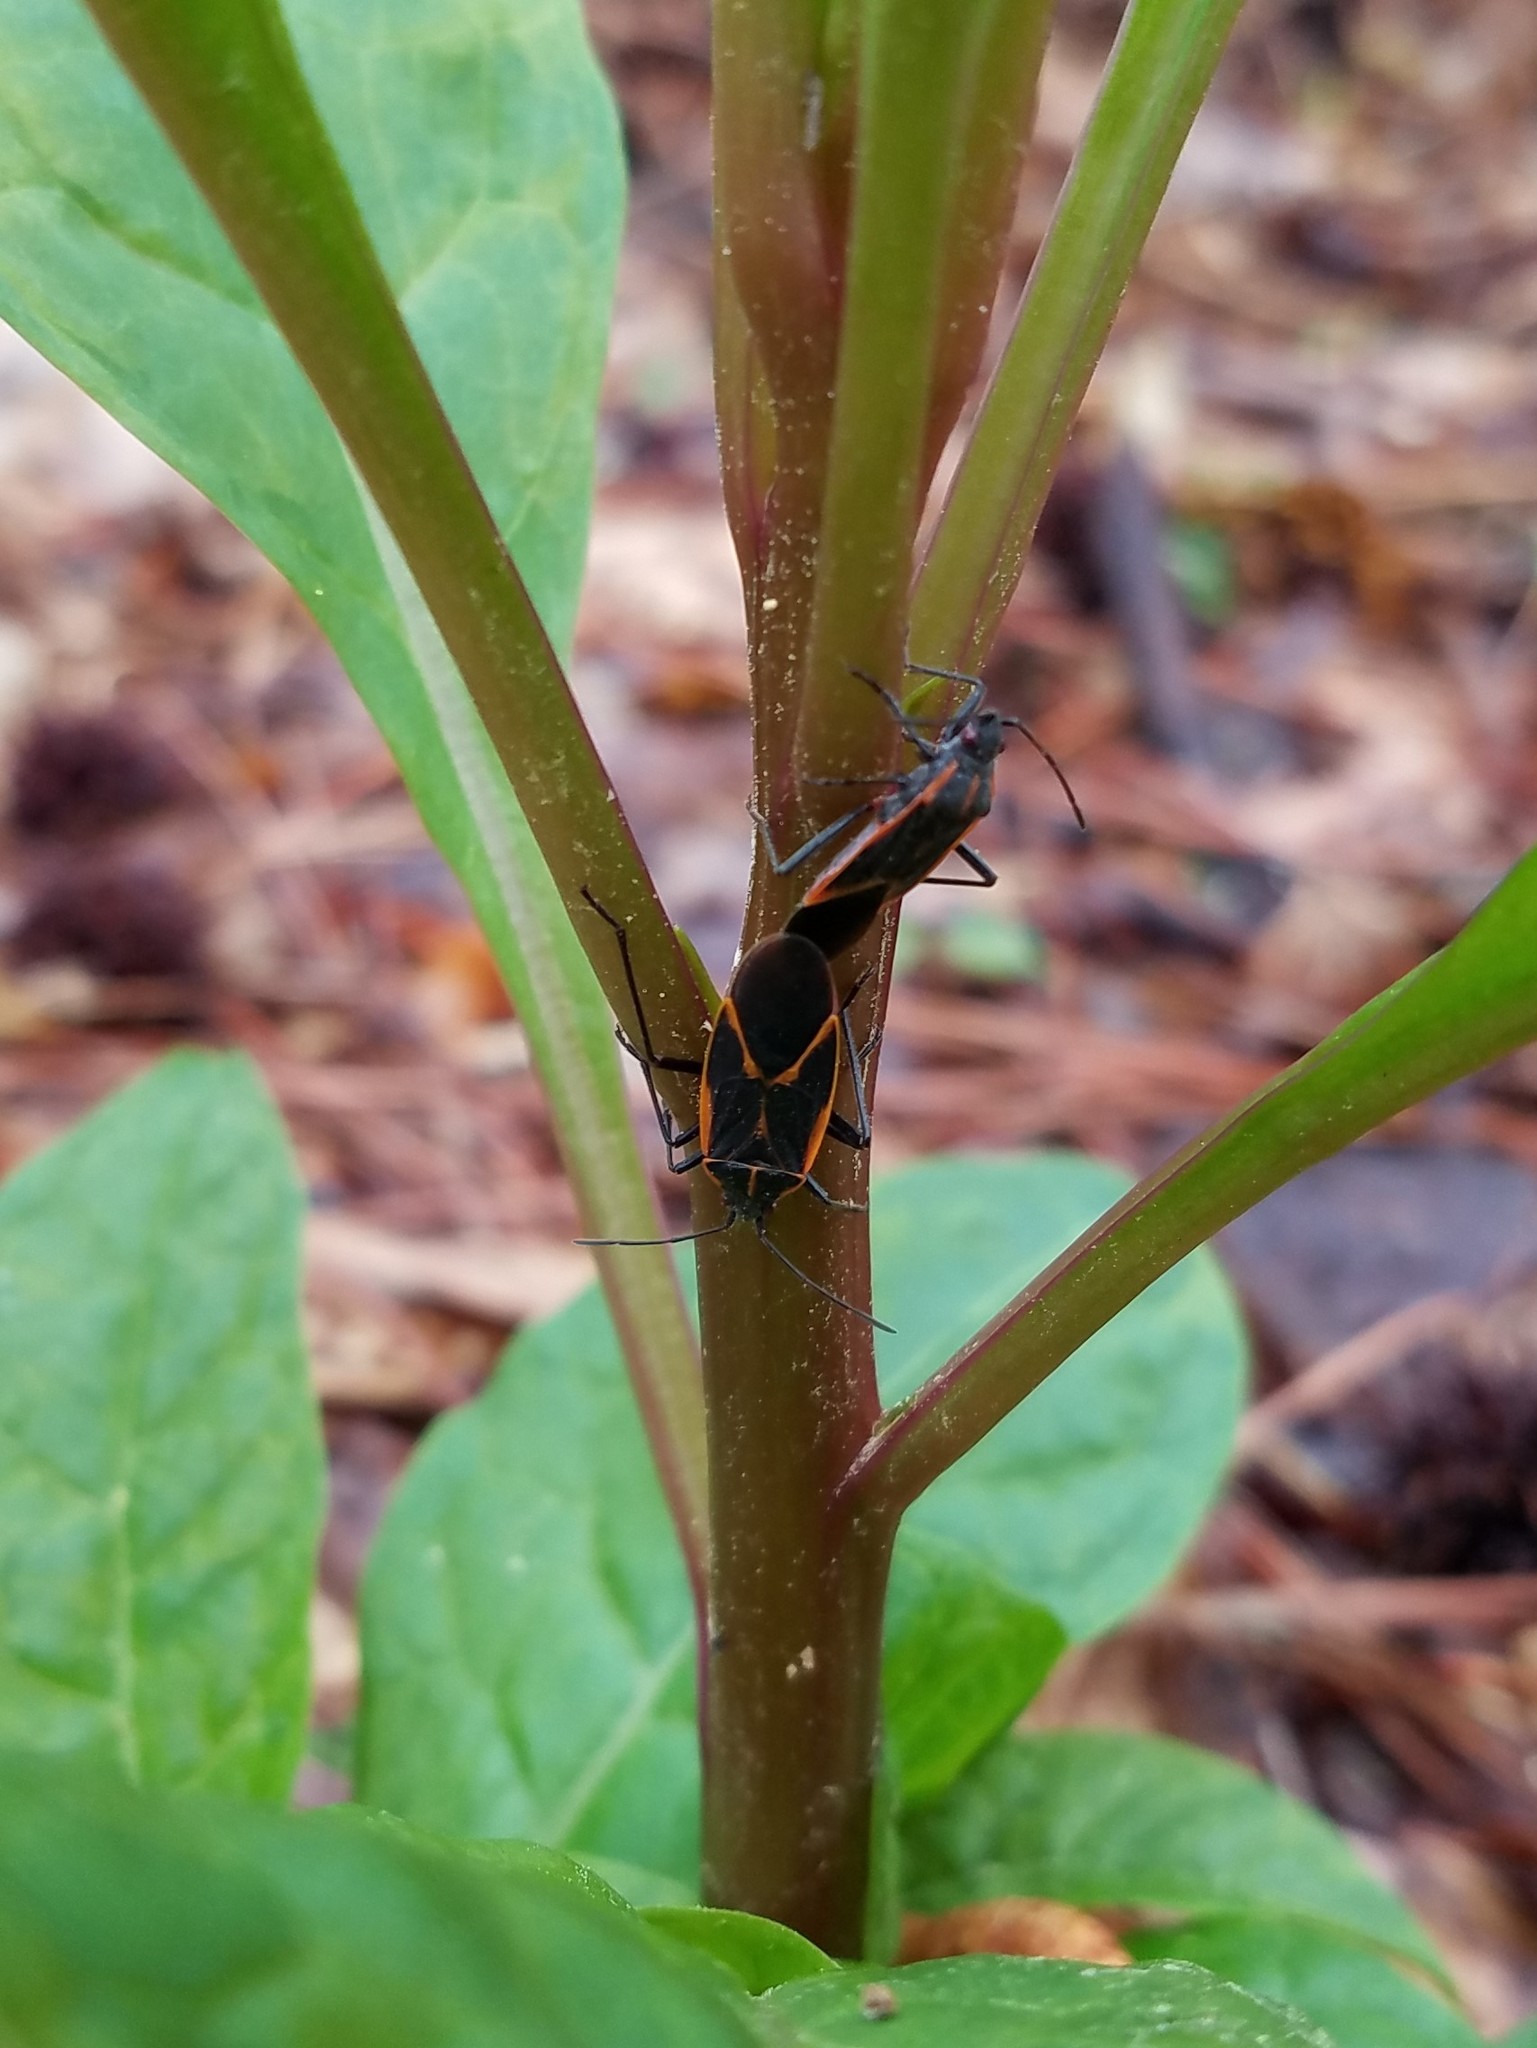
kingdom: Animalia
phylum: Arthropoda
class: Insecta
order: Hemiptera
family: Rhopalidae
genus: Boisea
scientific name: Boisea trivittata
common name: Boxelder bug
